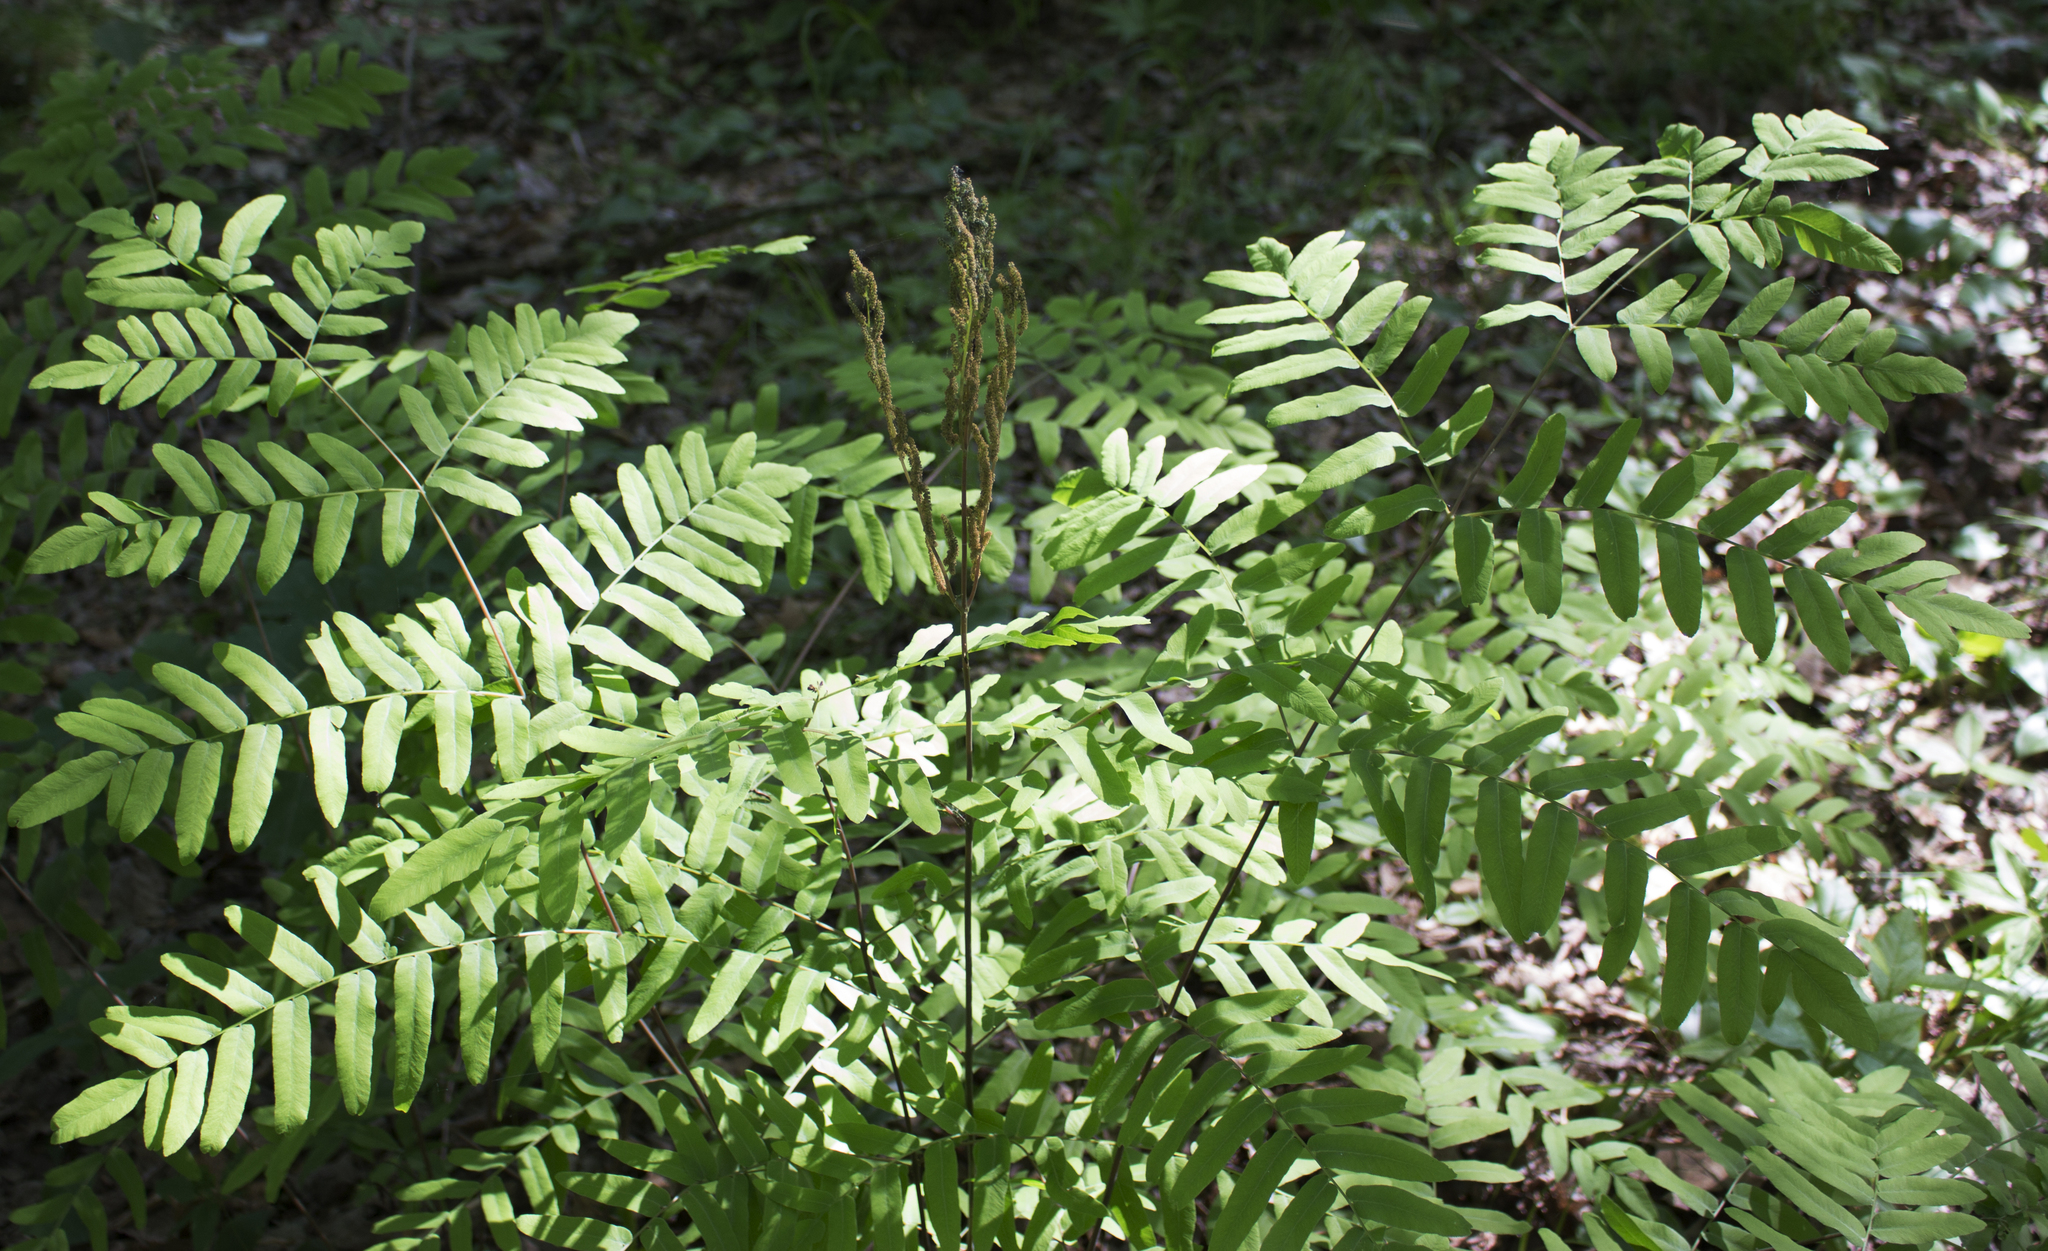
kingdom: Plantae
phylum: Tracheophyta
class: Polypodiopsida
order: Osmundales
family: Osmundaceae
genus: Osmunda
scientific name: Osmunda spectabilis
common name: American royal fern
